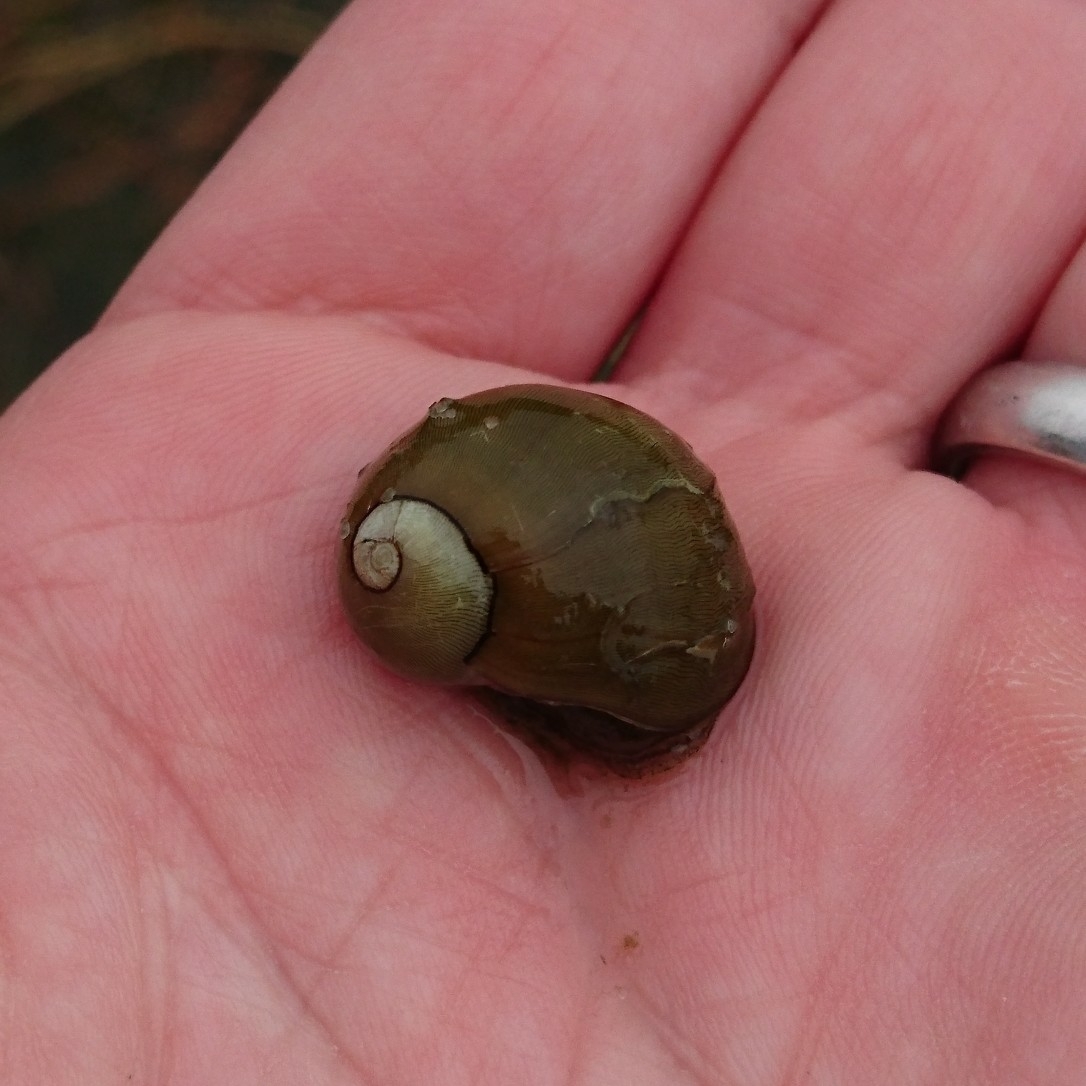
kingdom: Animalia
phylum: Mollusca
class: Gastropoda
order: Cycloneritida
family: Neritidae
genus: Vitta
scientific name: Vitta usnea
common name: Olive nerite
